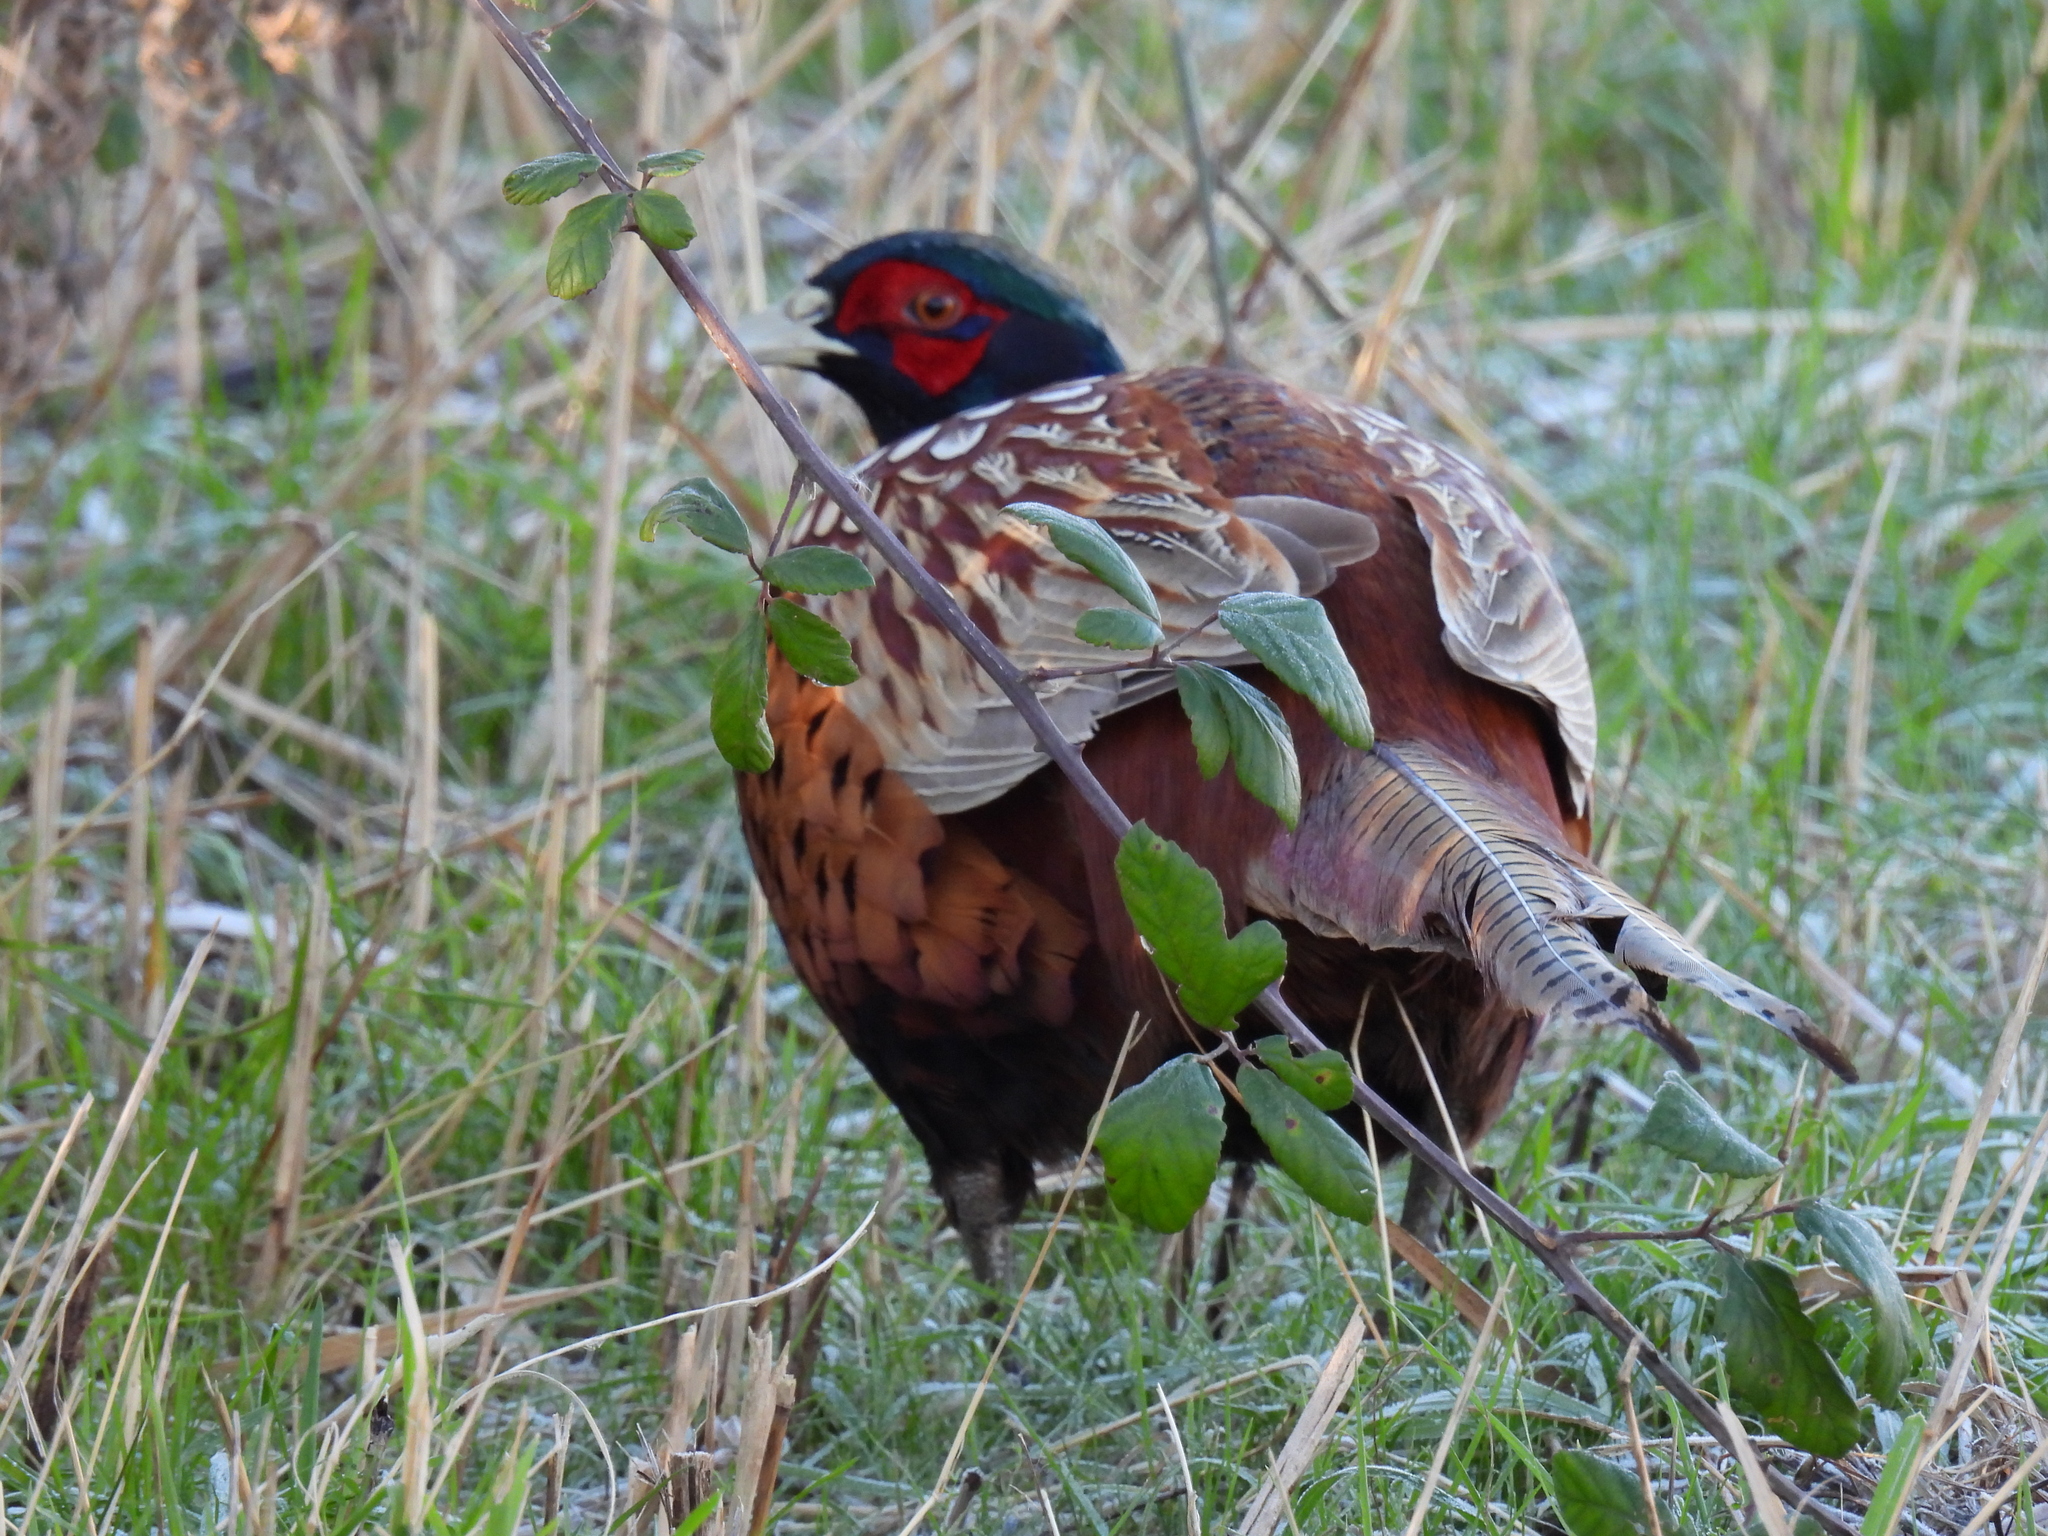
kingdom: Animalia
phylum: Chordata
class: Aves
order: Galliformes
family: Phasianidae
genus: Phasianus
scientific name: Phasianus colchicus
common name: Common pheasant
